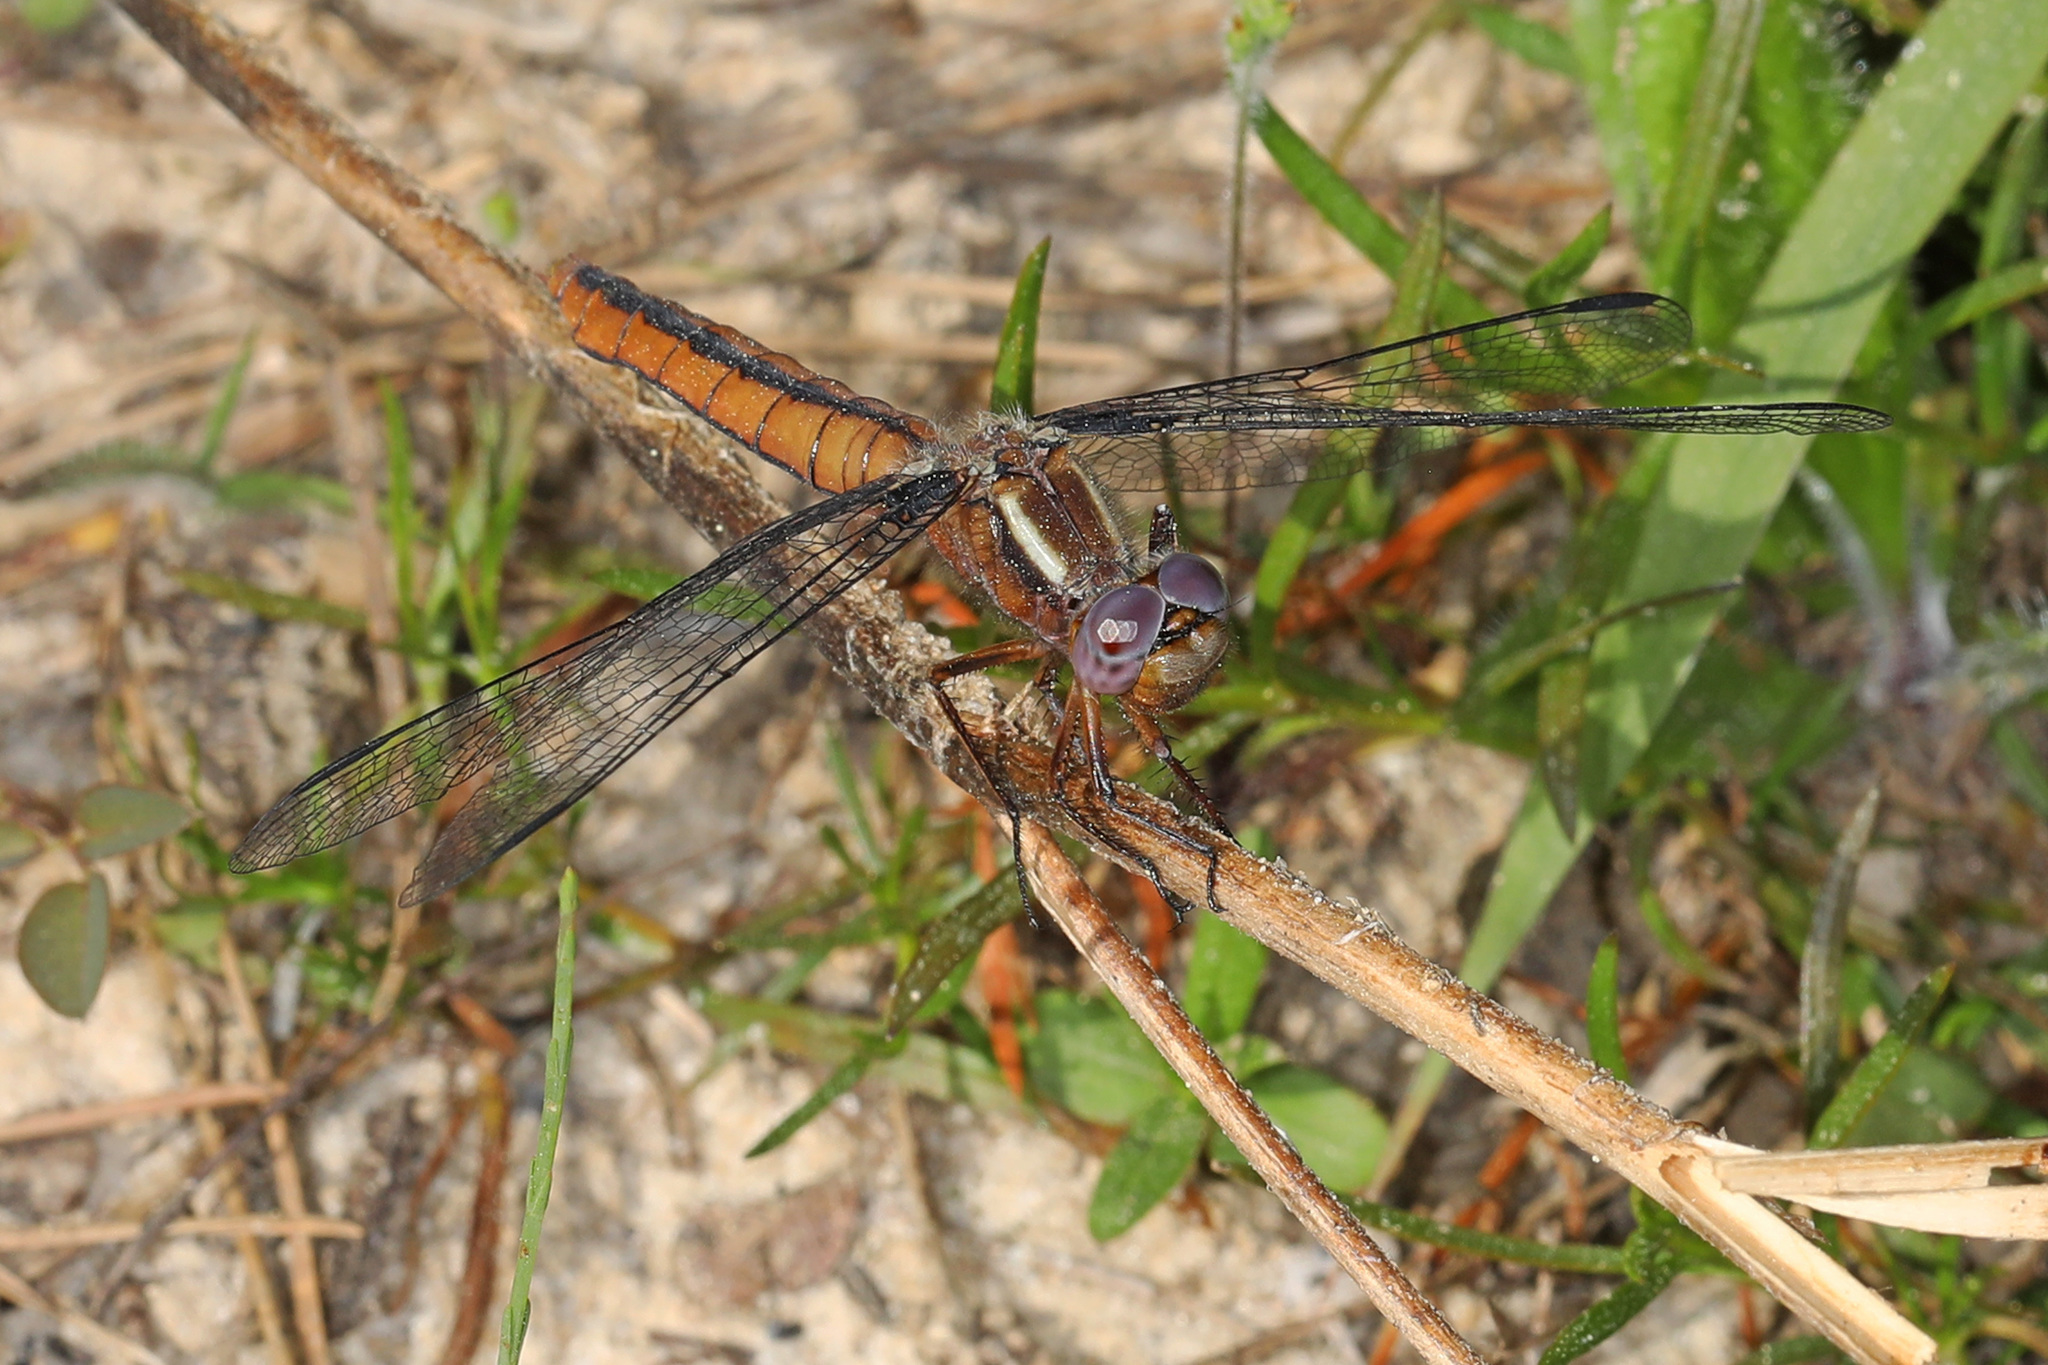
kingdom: Animalia
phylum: Arthropoda
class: Insecta
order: Odonata
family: Libellulidae
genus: Ladona
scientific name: Ladona deplanata
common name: Blue corporal
